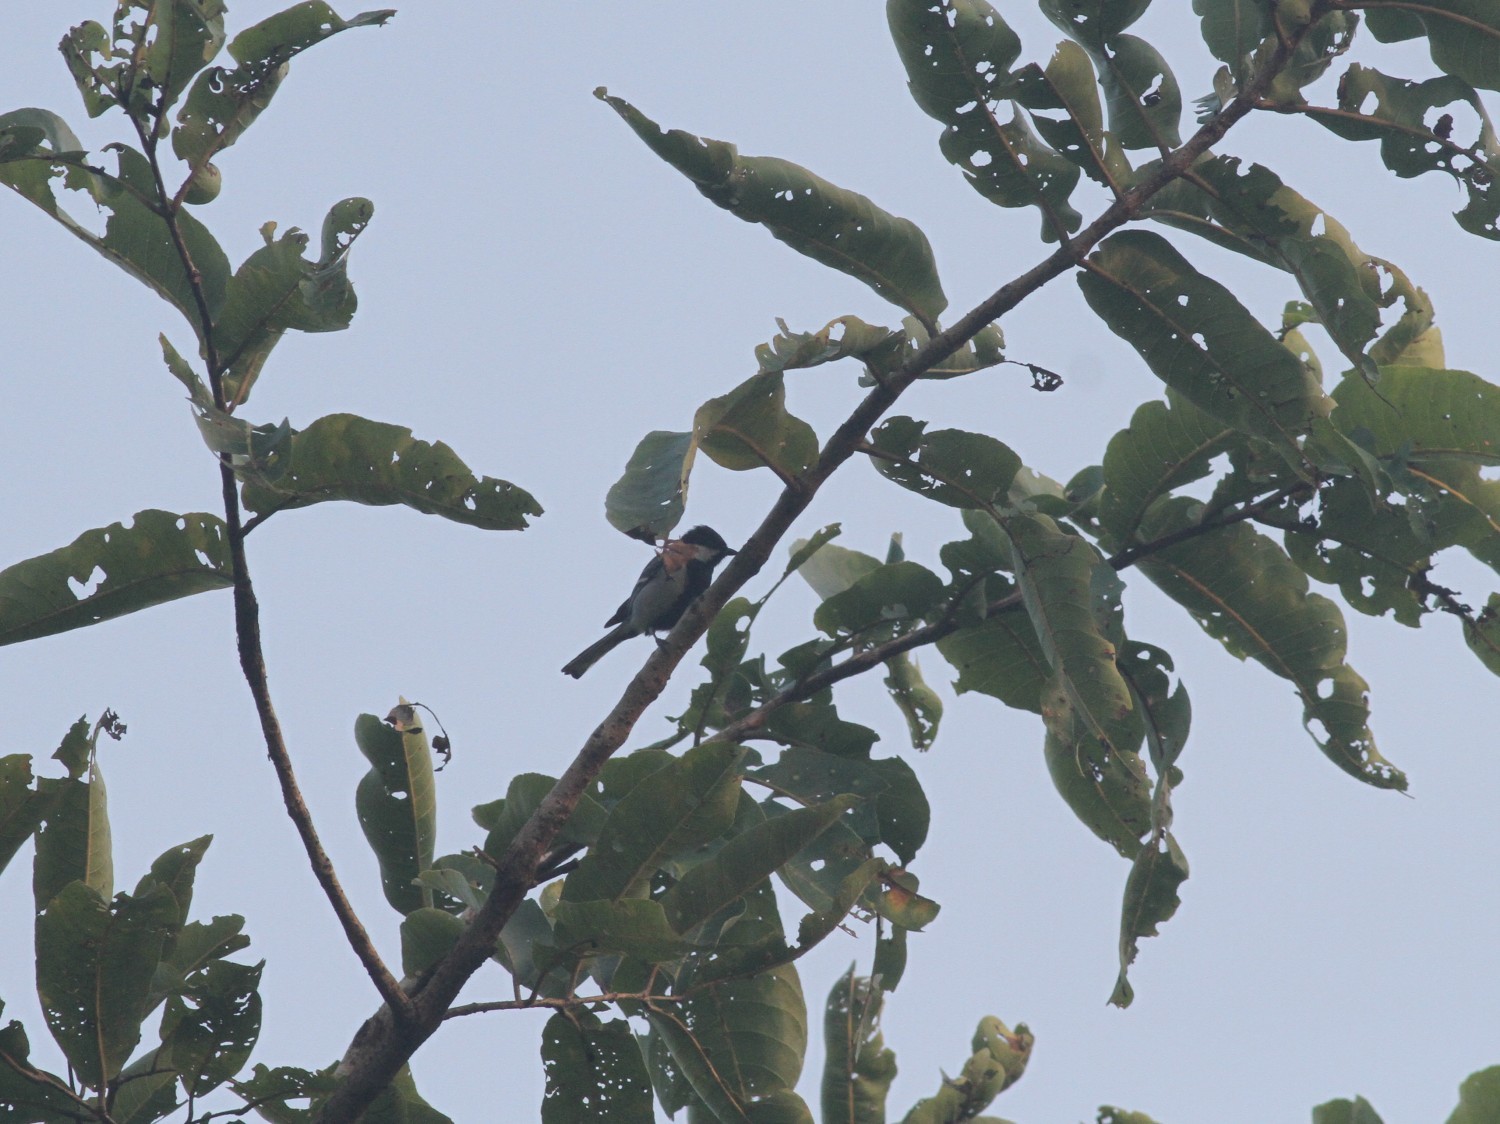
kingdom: Animalia
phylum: Chordata
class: Aves
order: Passeriformes
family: Paridae
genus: Parus
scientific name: Parus cinereus
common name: Cinereous tit
